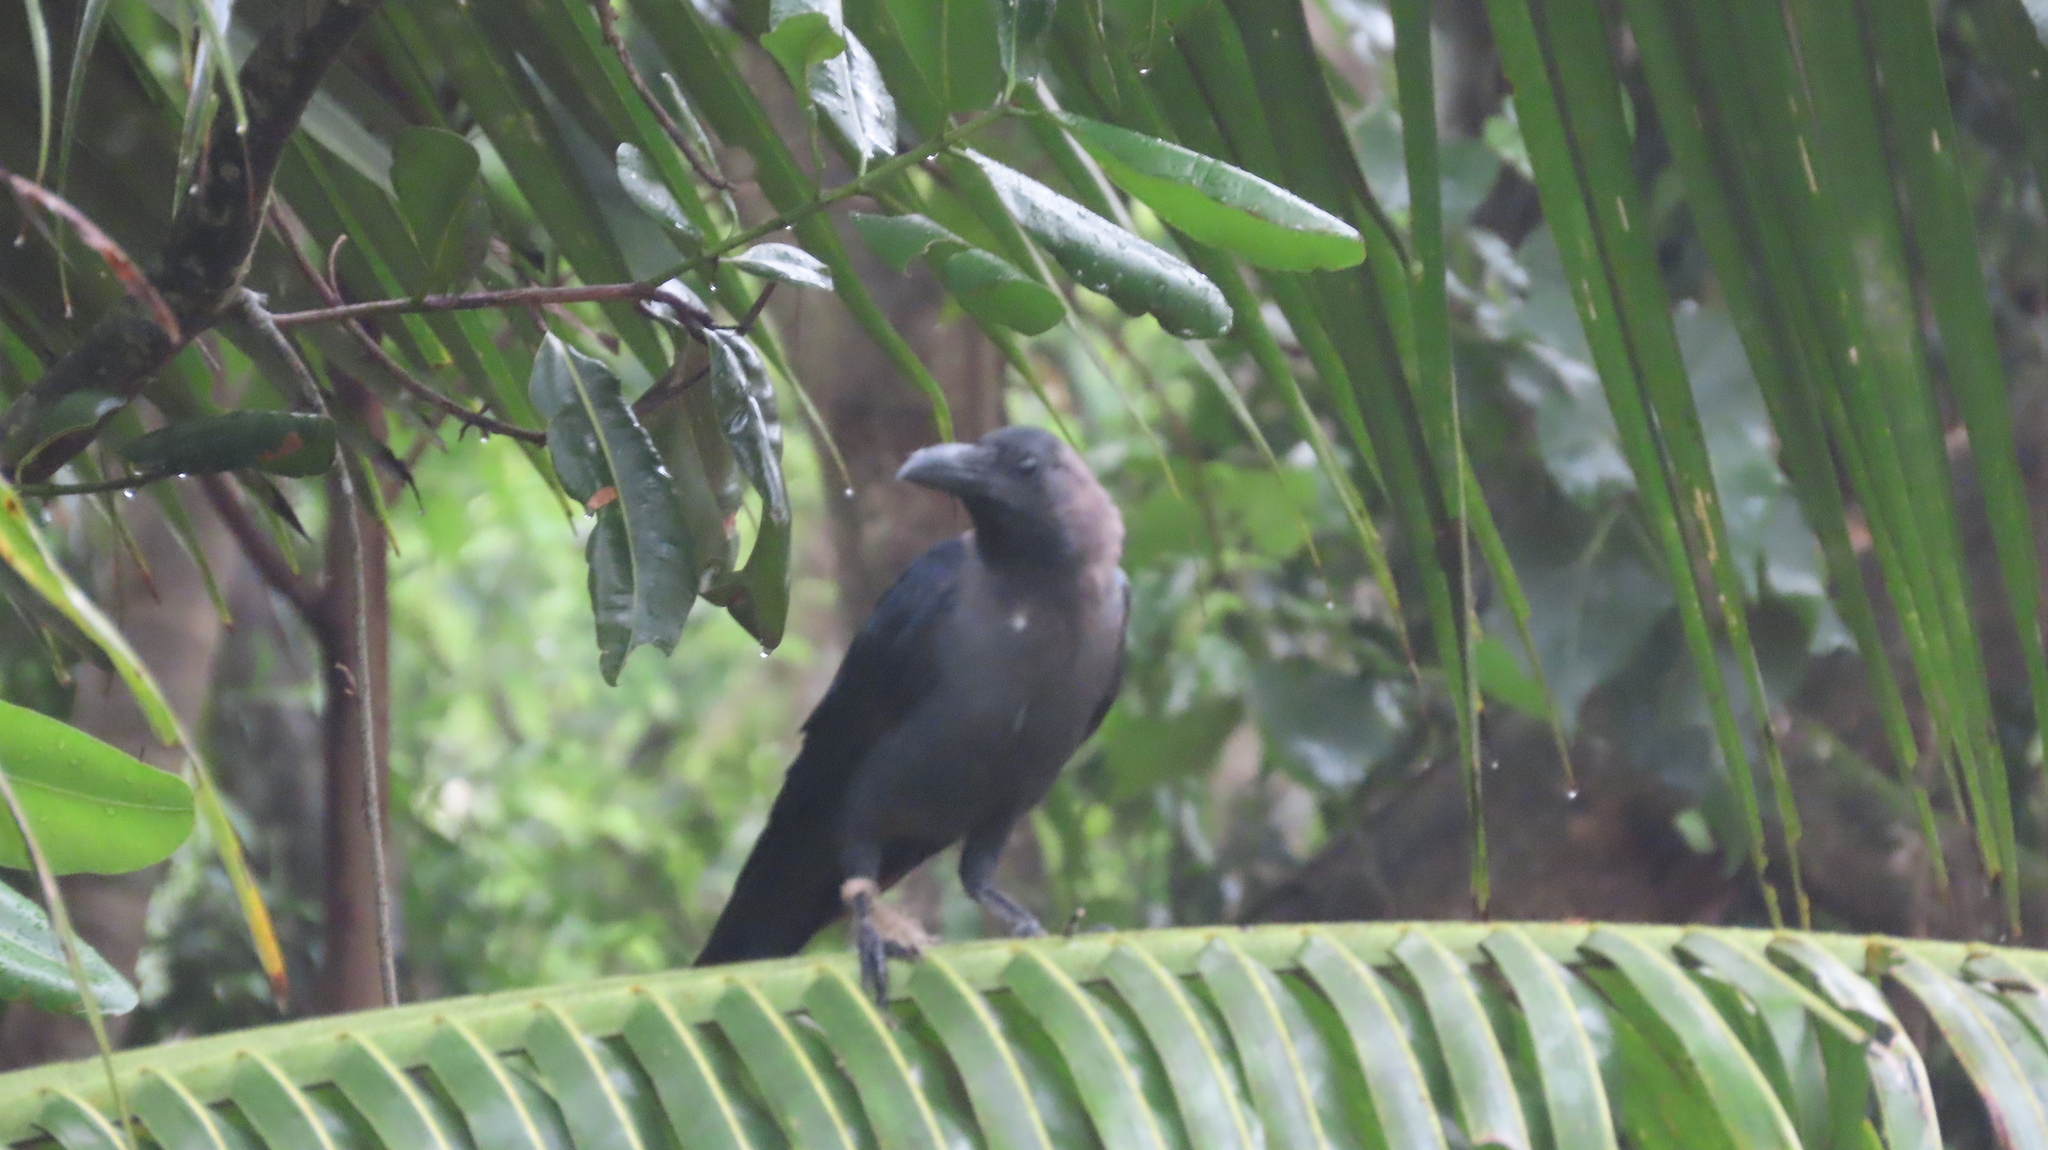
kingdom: Animalia
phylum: Chordata
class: Aves
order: Passeriformes
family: Corvidae
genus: Corvus
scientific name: Corvus splendens
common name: House crow
